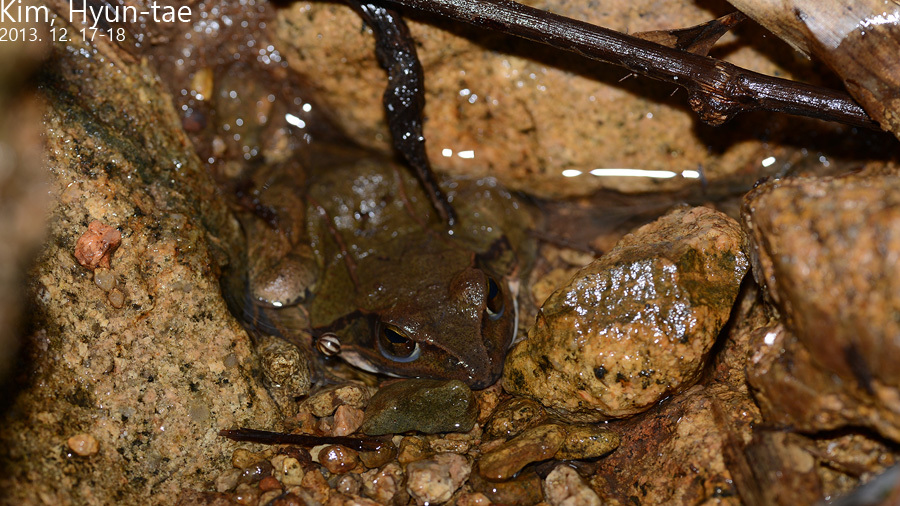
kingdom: Animalia
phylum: Chordata
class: Amphibia
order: Anura
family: Ranidae
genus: Rana
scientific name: Rana uenoi
